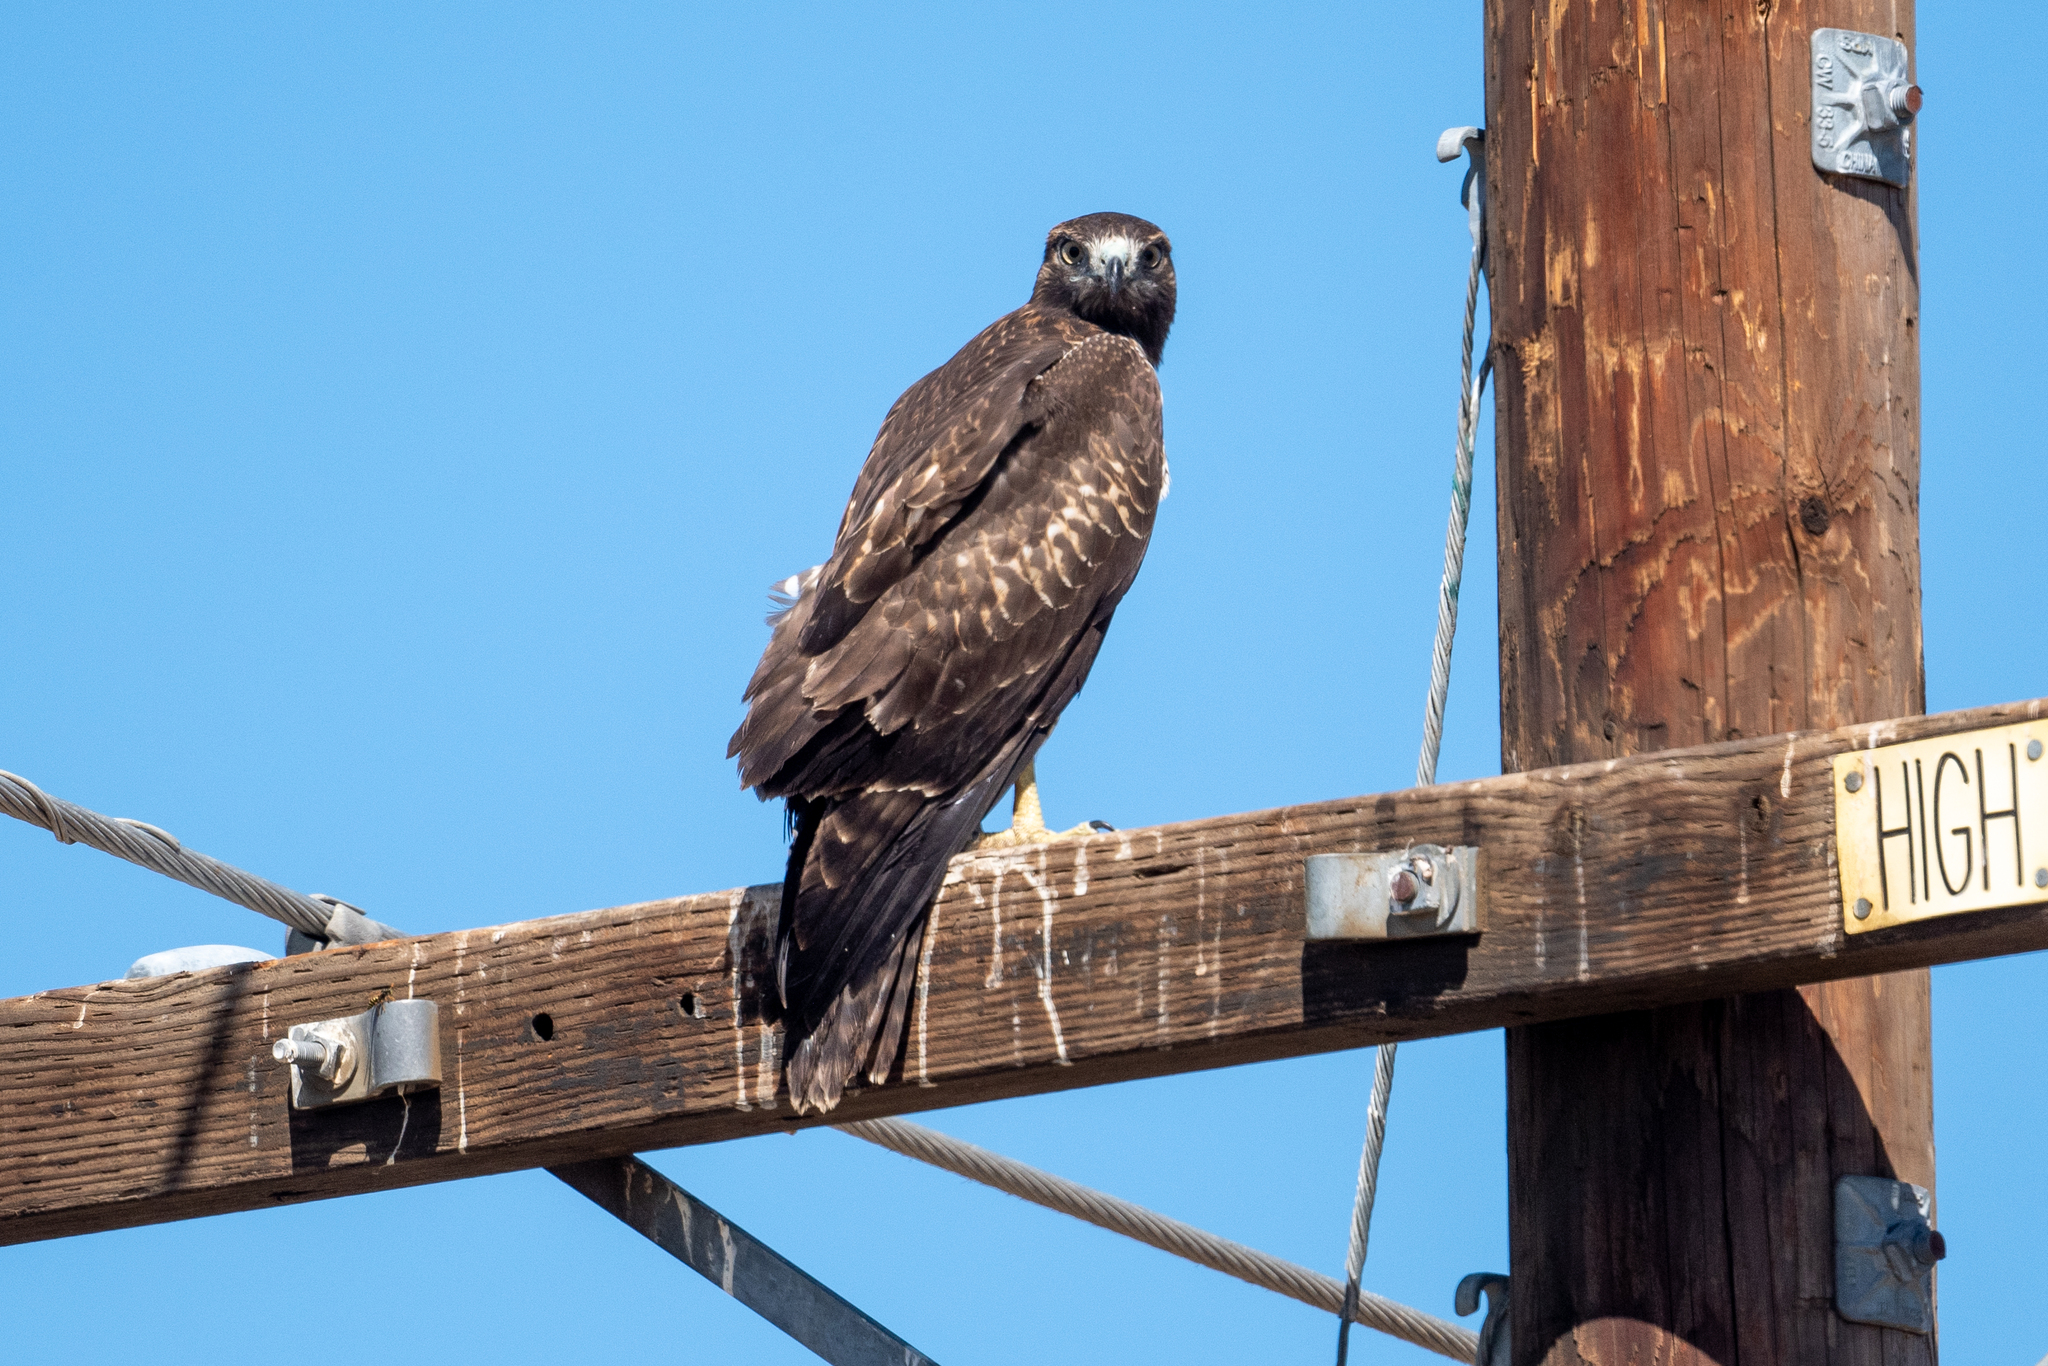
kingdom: Animalia
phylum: Chordata
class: Aves
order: Accipitriformes
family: Accipitridae
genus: Buteo
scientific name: Buteo jamaicensis
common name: Red-tailed hawk
